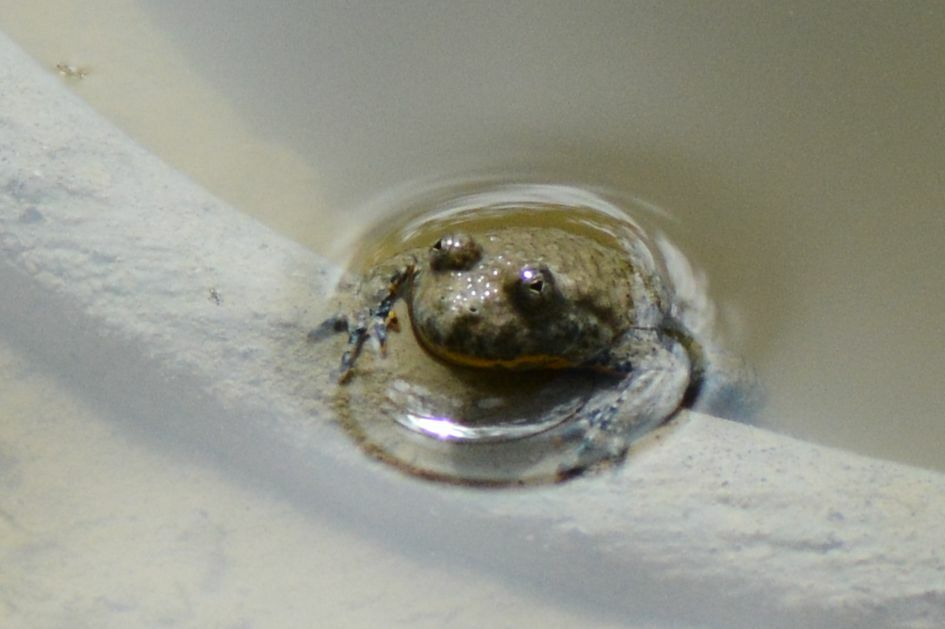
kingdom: Animalia
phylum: Chordata
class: Amphibia
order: Anura
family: Bombinatoridae
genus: Bombina
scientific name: Bombina variegata
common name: Yellow-bellied toad
